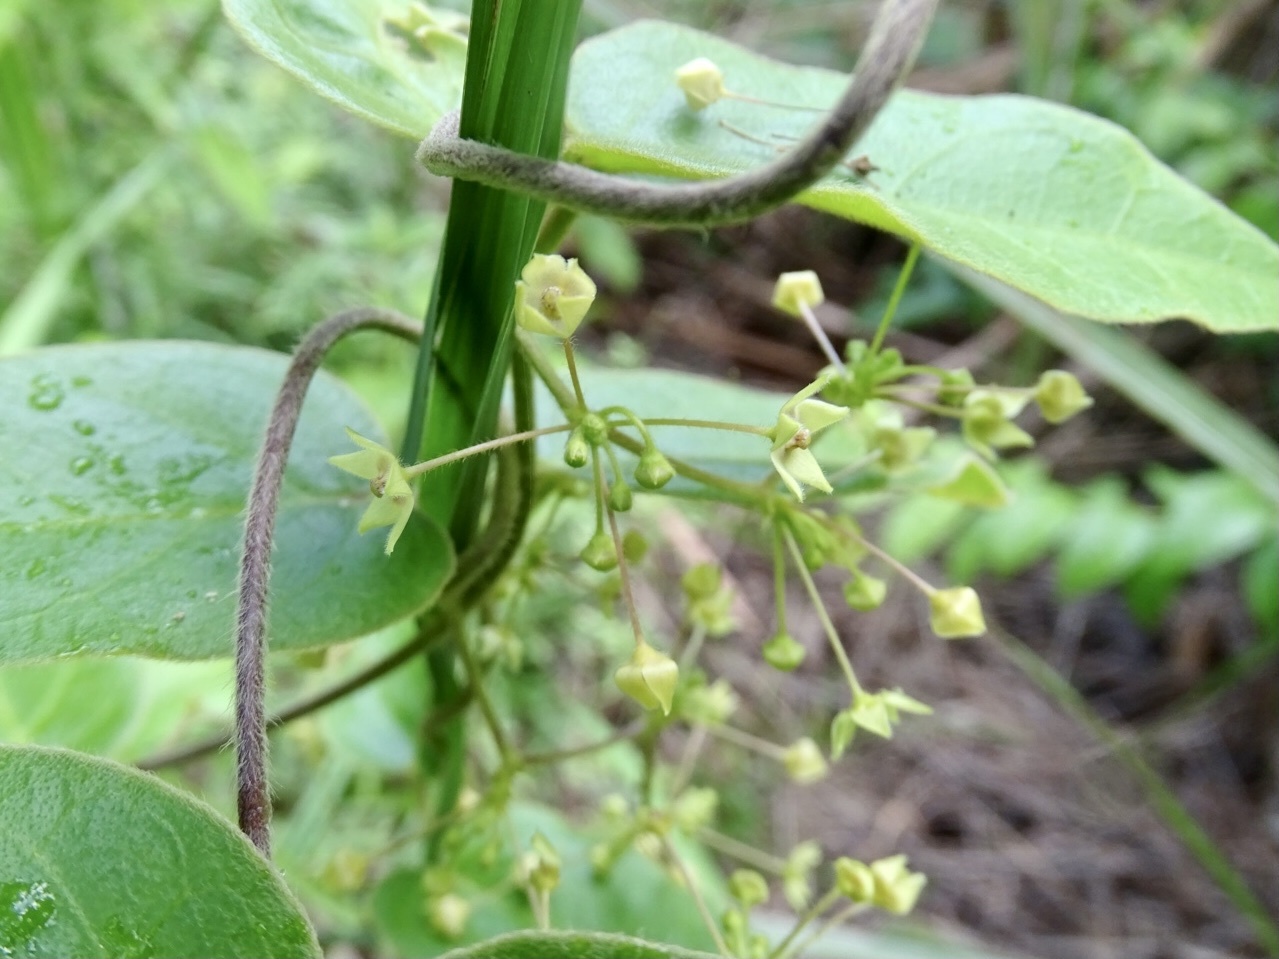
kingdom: Plantae
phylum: Tracheophyta
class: Magnoliopsida
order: Gentianales
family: Apocynaceae
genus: Vincetoxicum
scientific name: Vincetoxicum hirsutum
